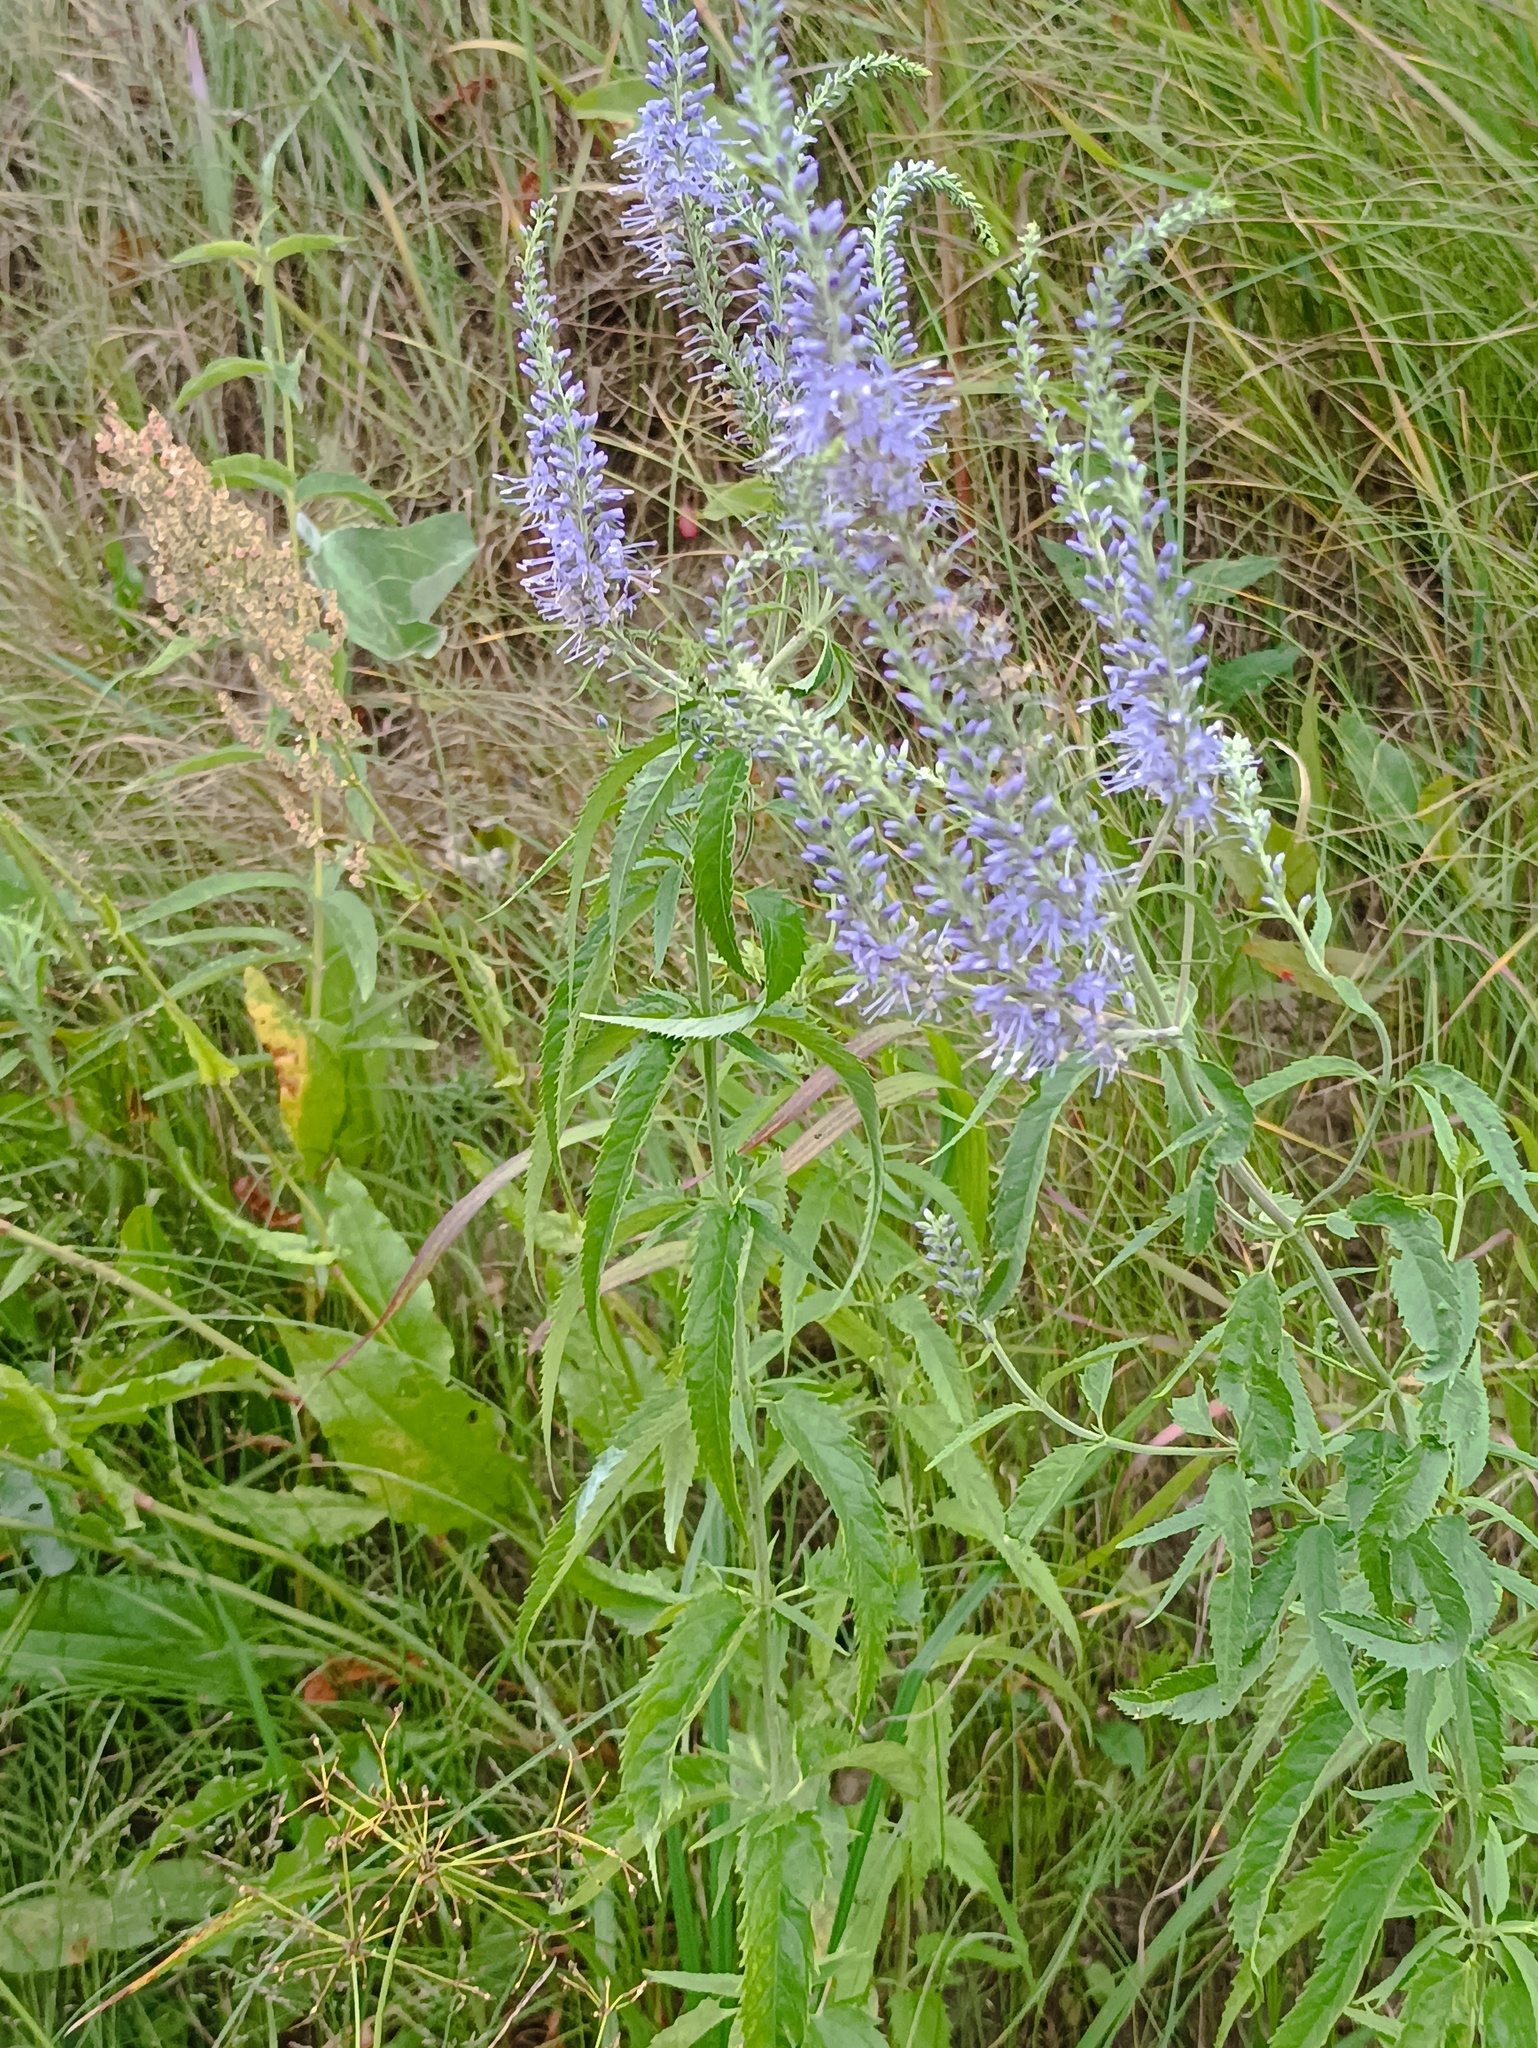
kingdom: Plantae
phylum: Tracheophyta
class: Magnoliopsida
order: Lamiales
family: Plantaginaceae
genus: Veronica
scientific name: Veronica longifolia
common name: Garden speedwell
